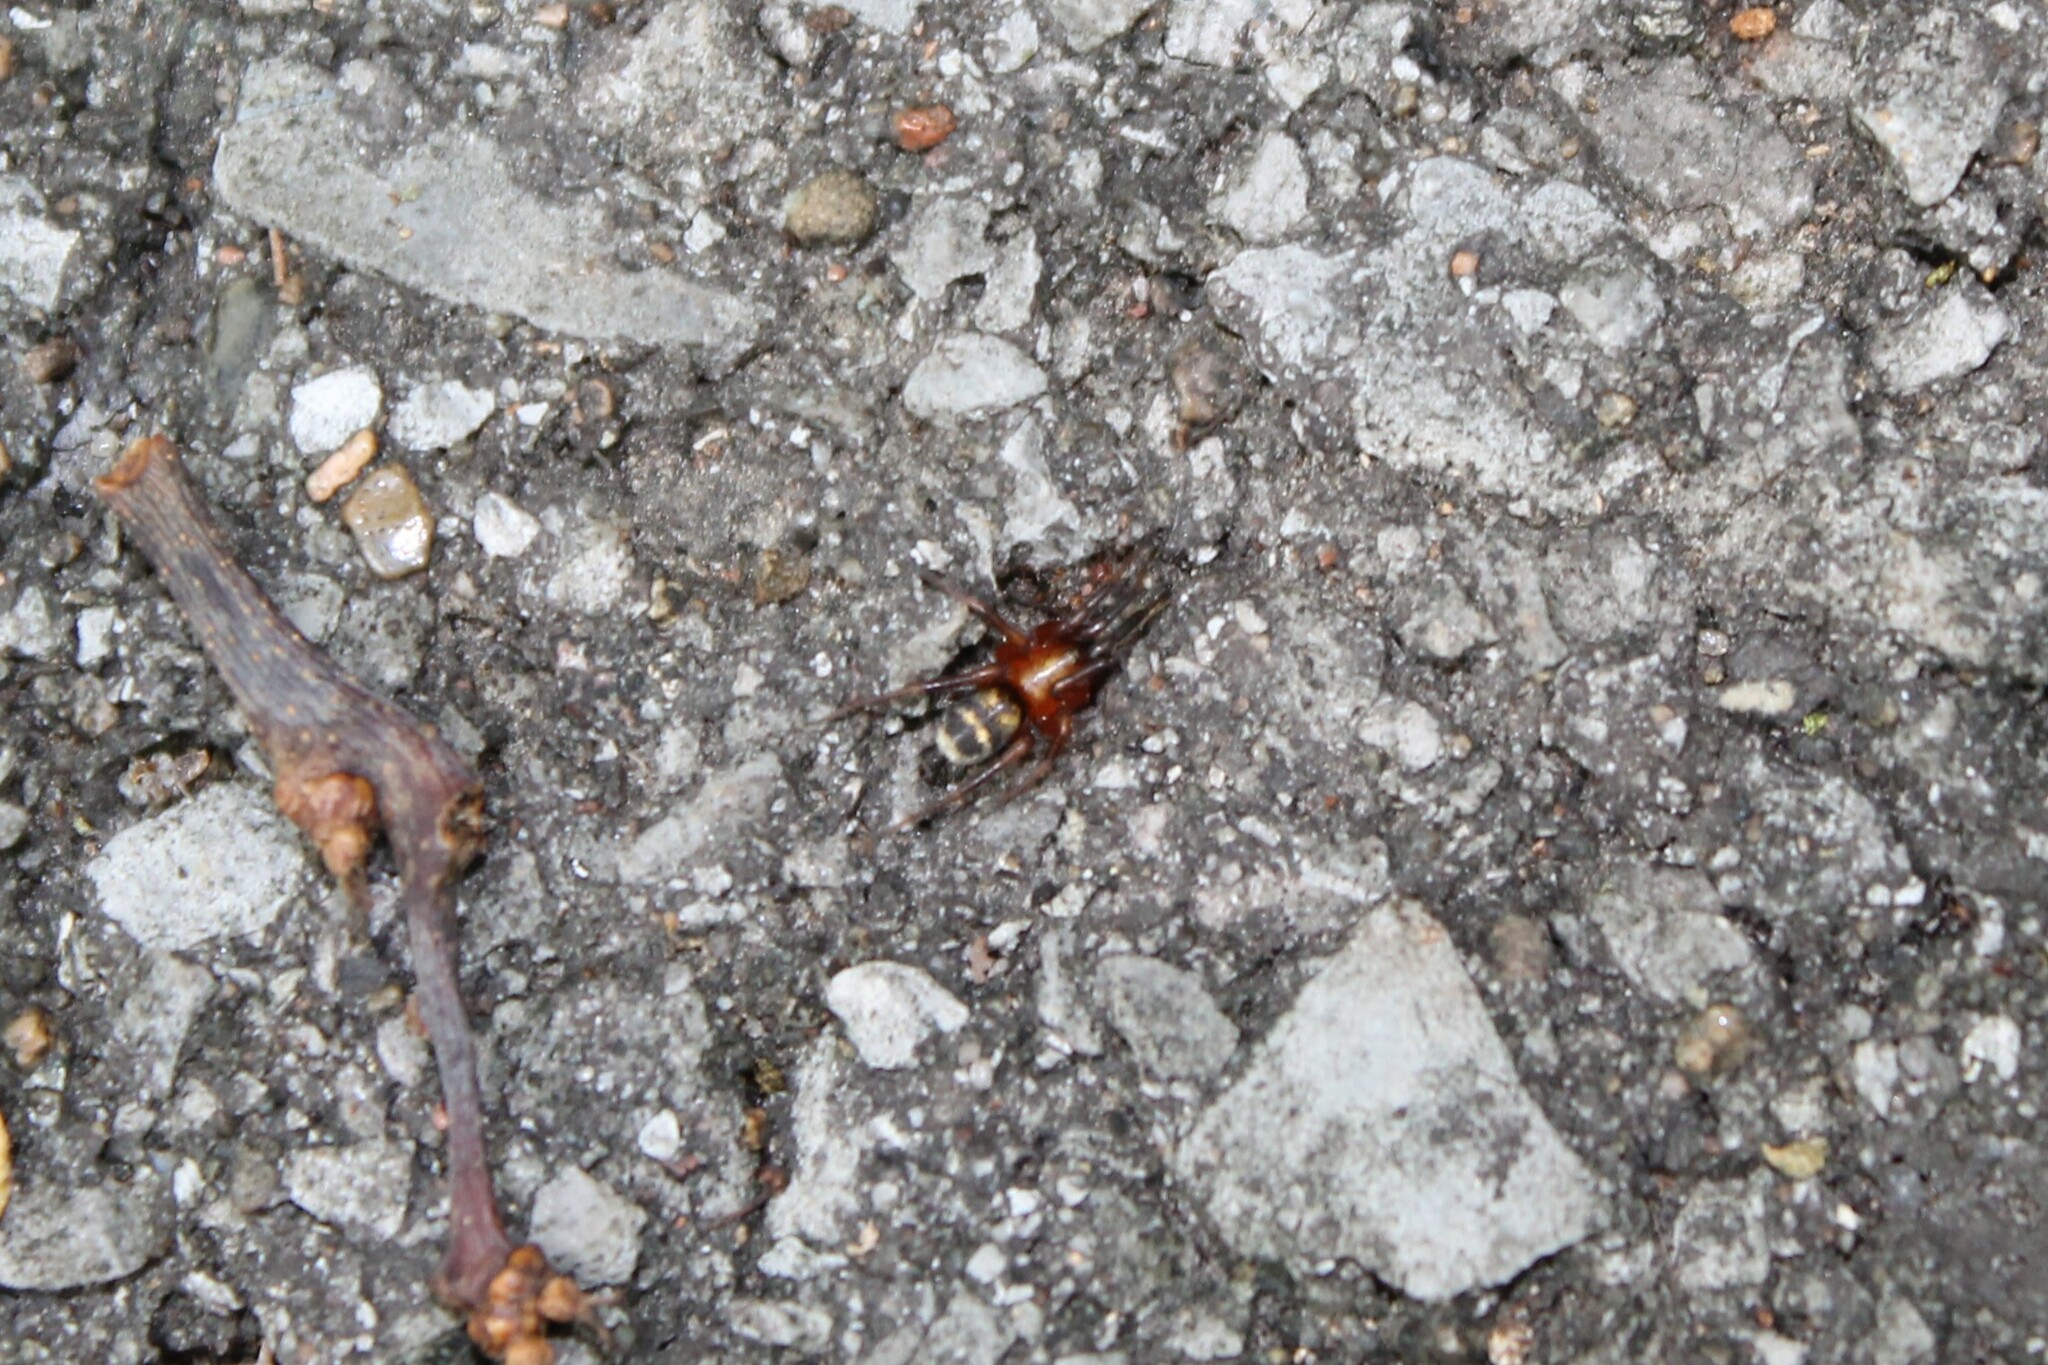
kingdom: Animalia
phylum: Arthropoda
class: Arachnida
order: Araneae
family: Gnaphosidae
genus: Sergiolus
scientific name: Sergiolus capulatus
